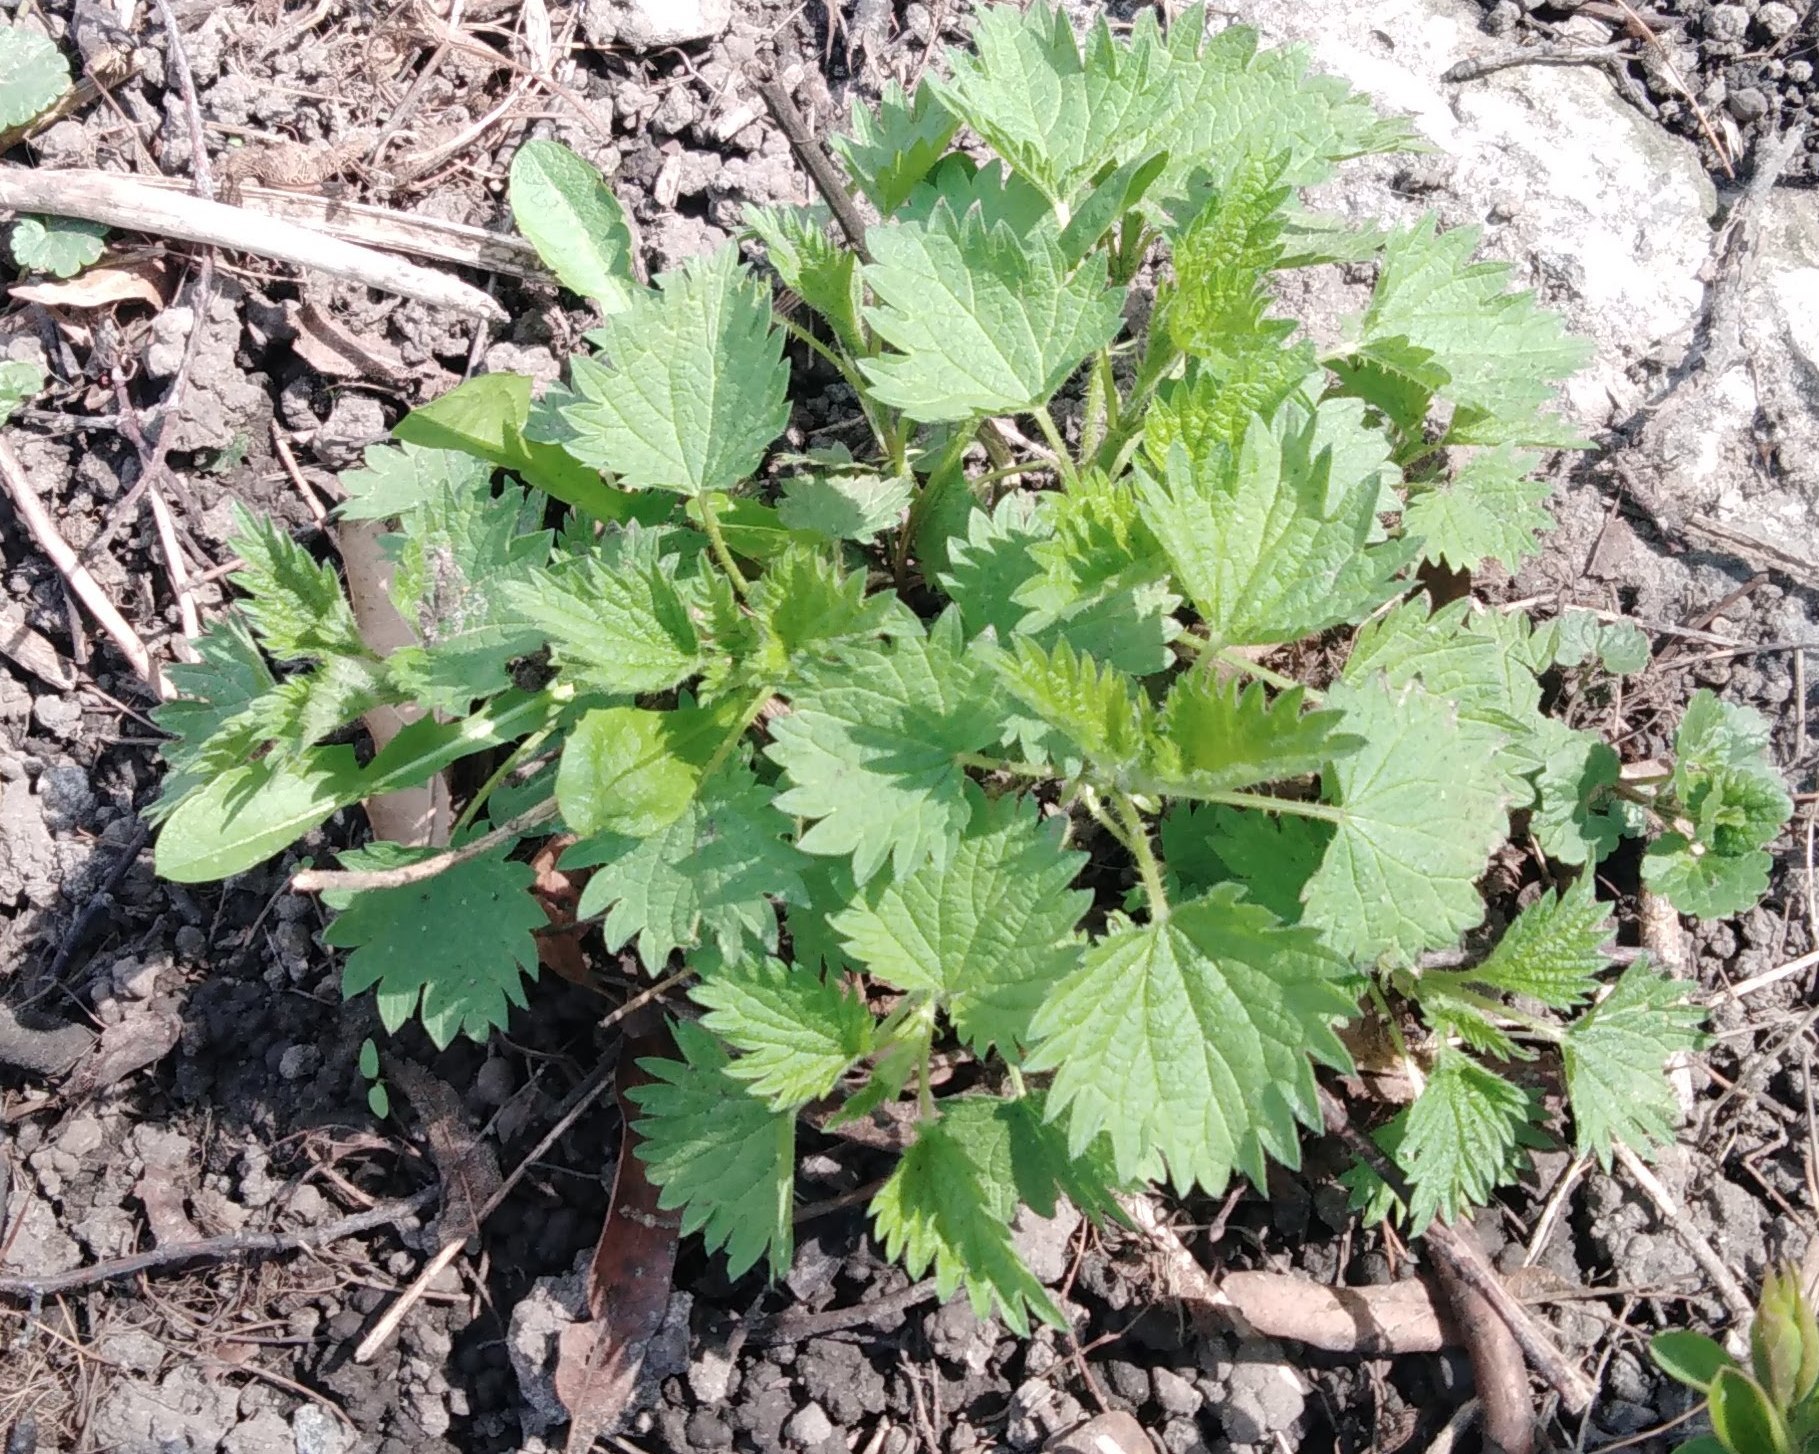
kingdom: Plantae
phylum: Tracheophyta
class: Magnoliopsida
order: Rosales
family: Urticaceae
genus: Urtica
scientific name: Urtica dioica
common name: Common nettle
